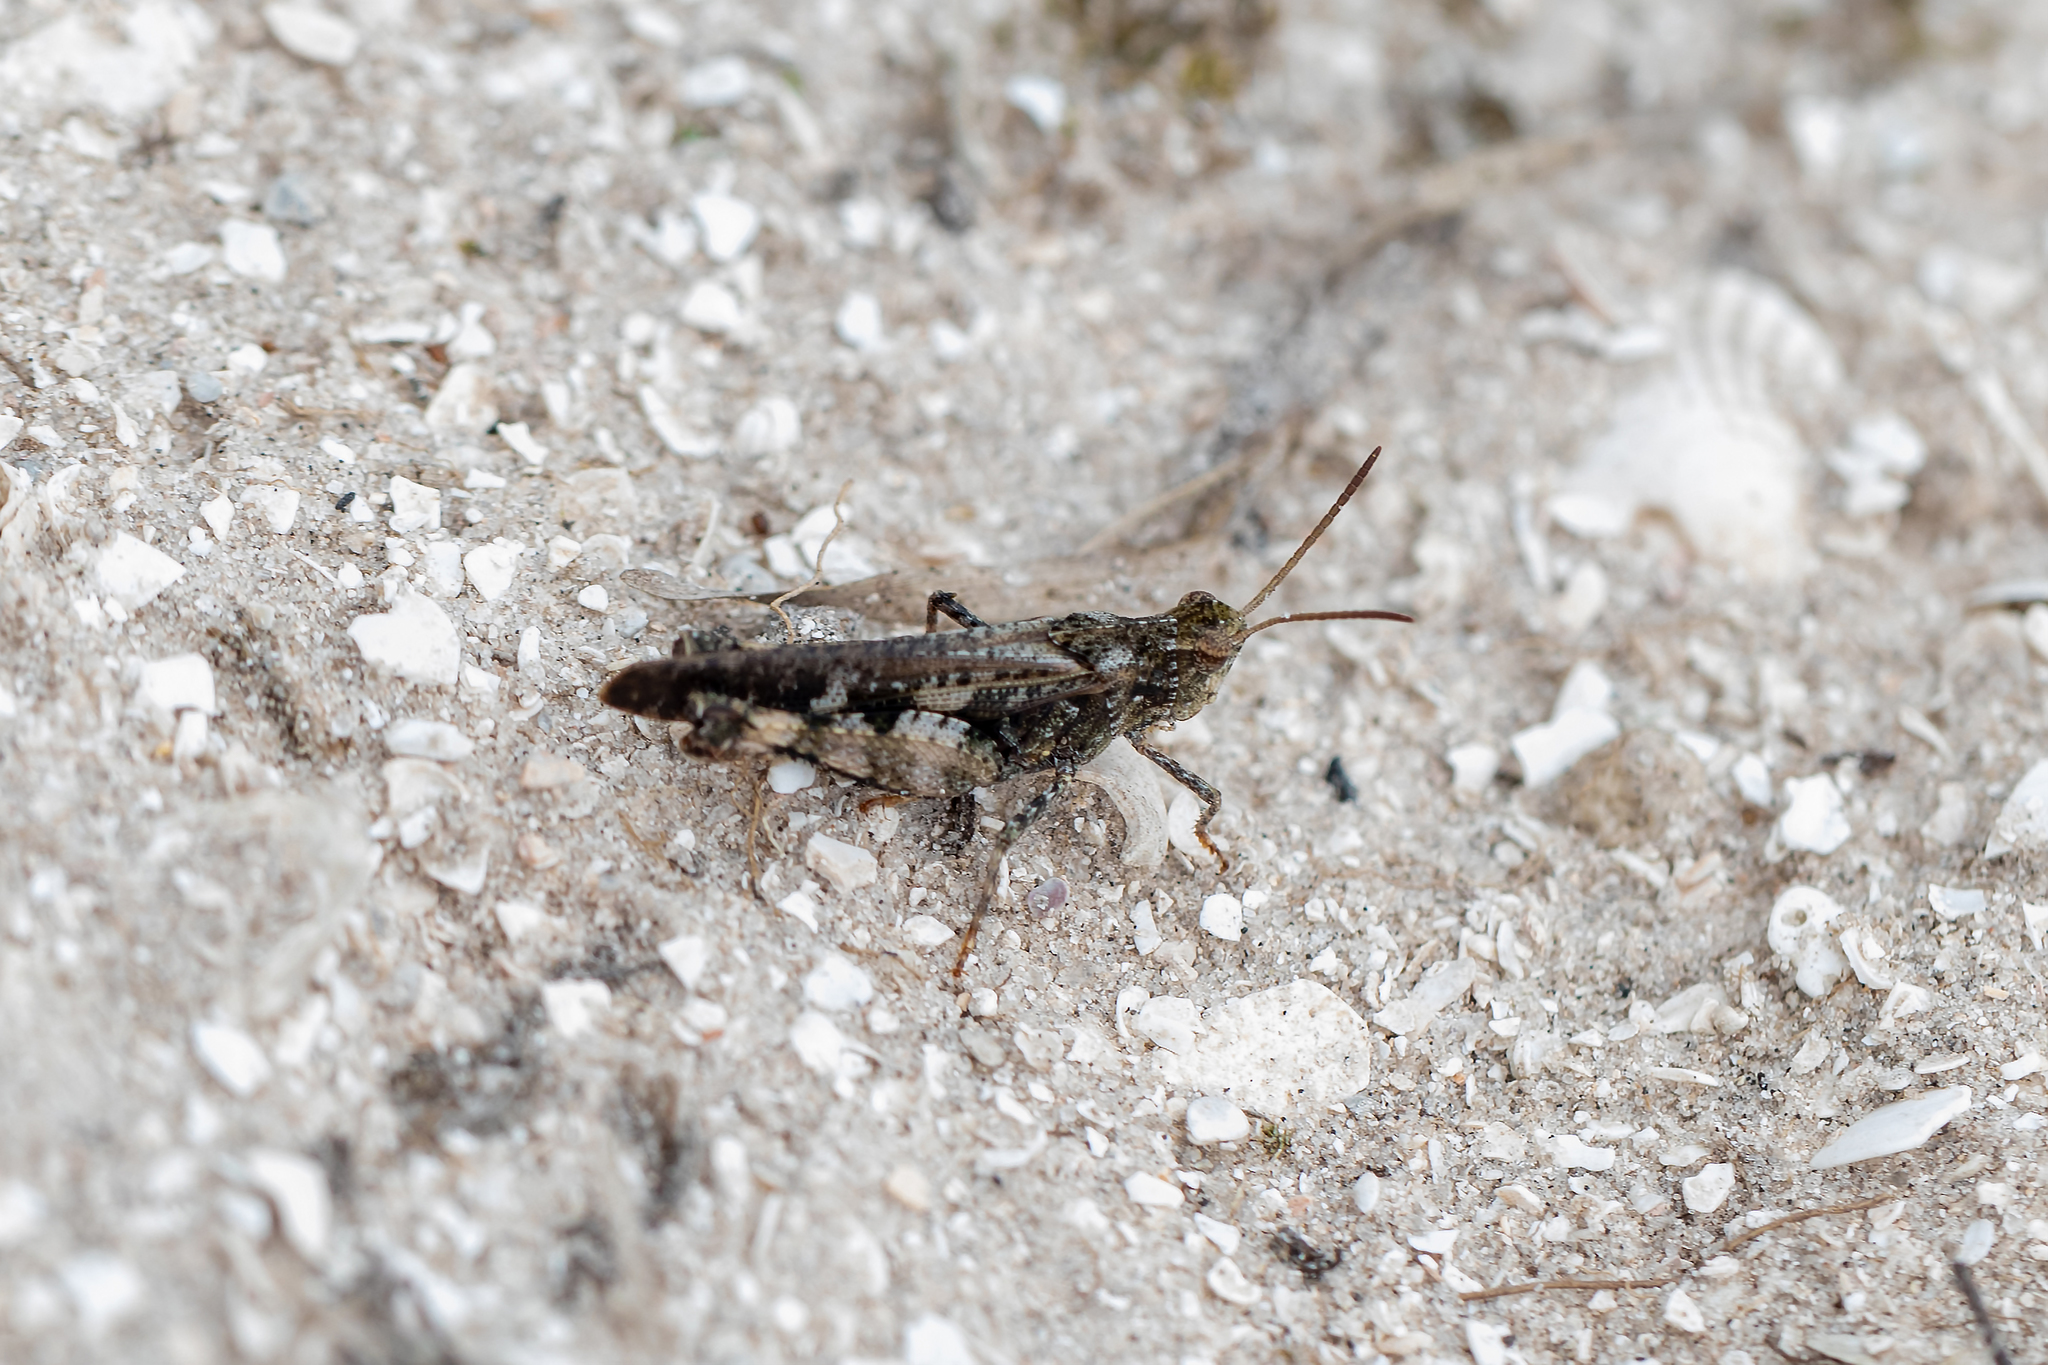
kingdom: Animalia
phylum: Arthropoda
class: Insecta
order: Orthoptera
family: Acrididae
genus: Chortophaga
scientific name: Chortophaga australior
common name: Southern green-striped grasshopper
